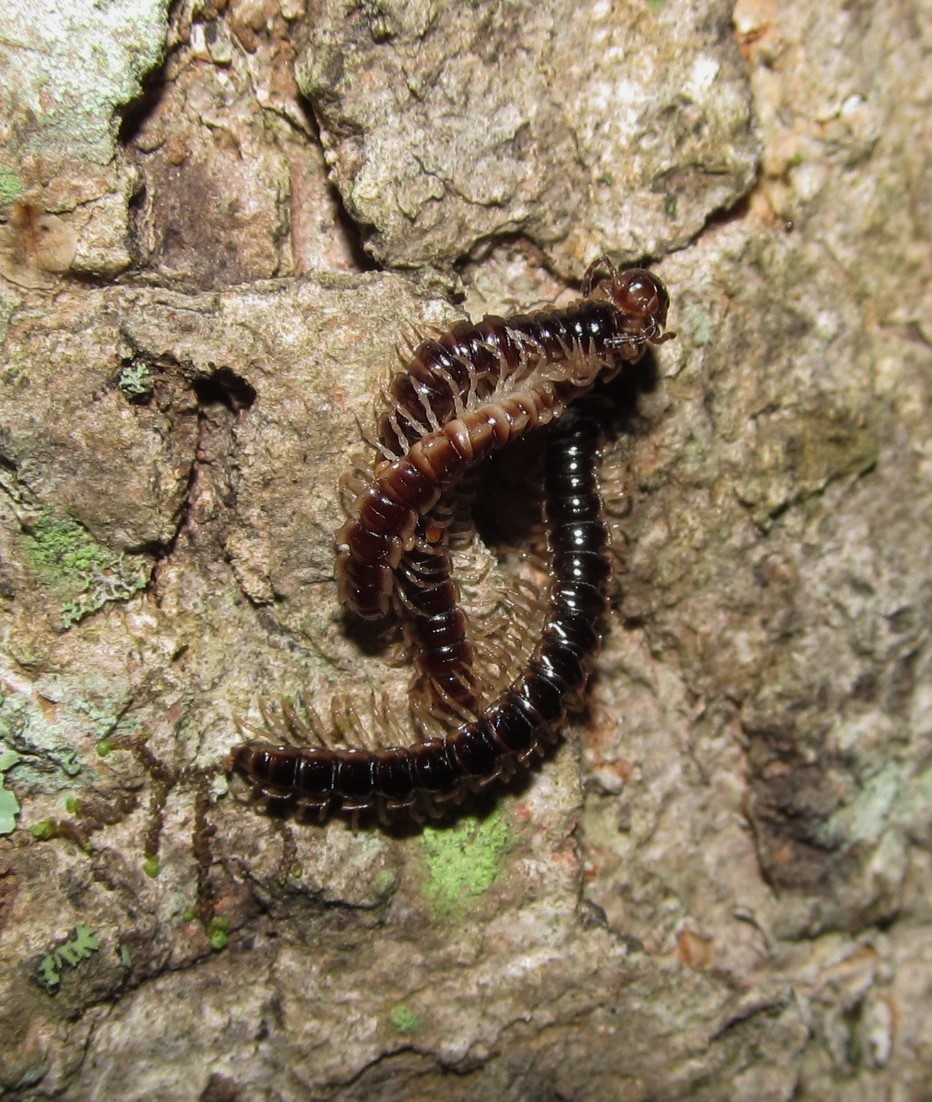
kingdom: Animalia
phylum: Arthropoda
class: Diplopoda
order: Polydesmida
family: Paradoxosomatidae
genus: Oxidus
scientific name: Oxidus gracilis
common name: Greenhouse millipede
